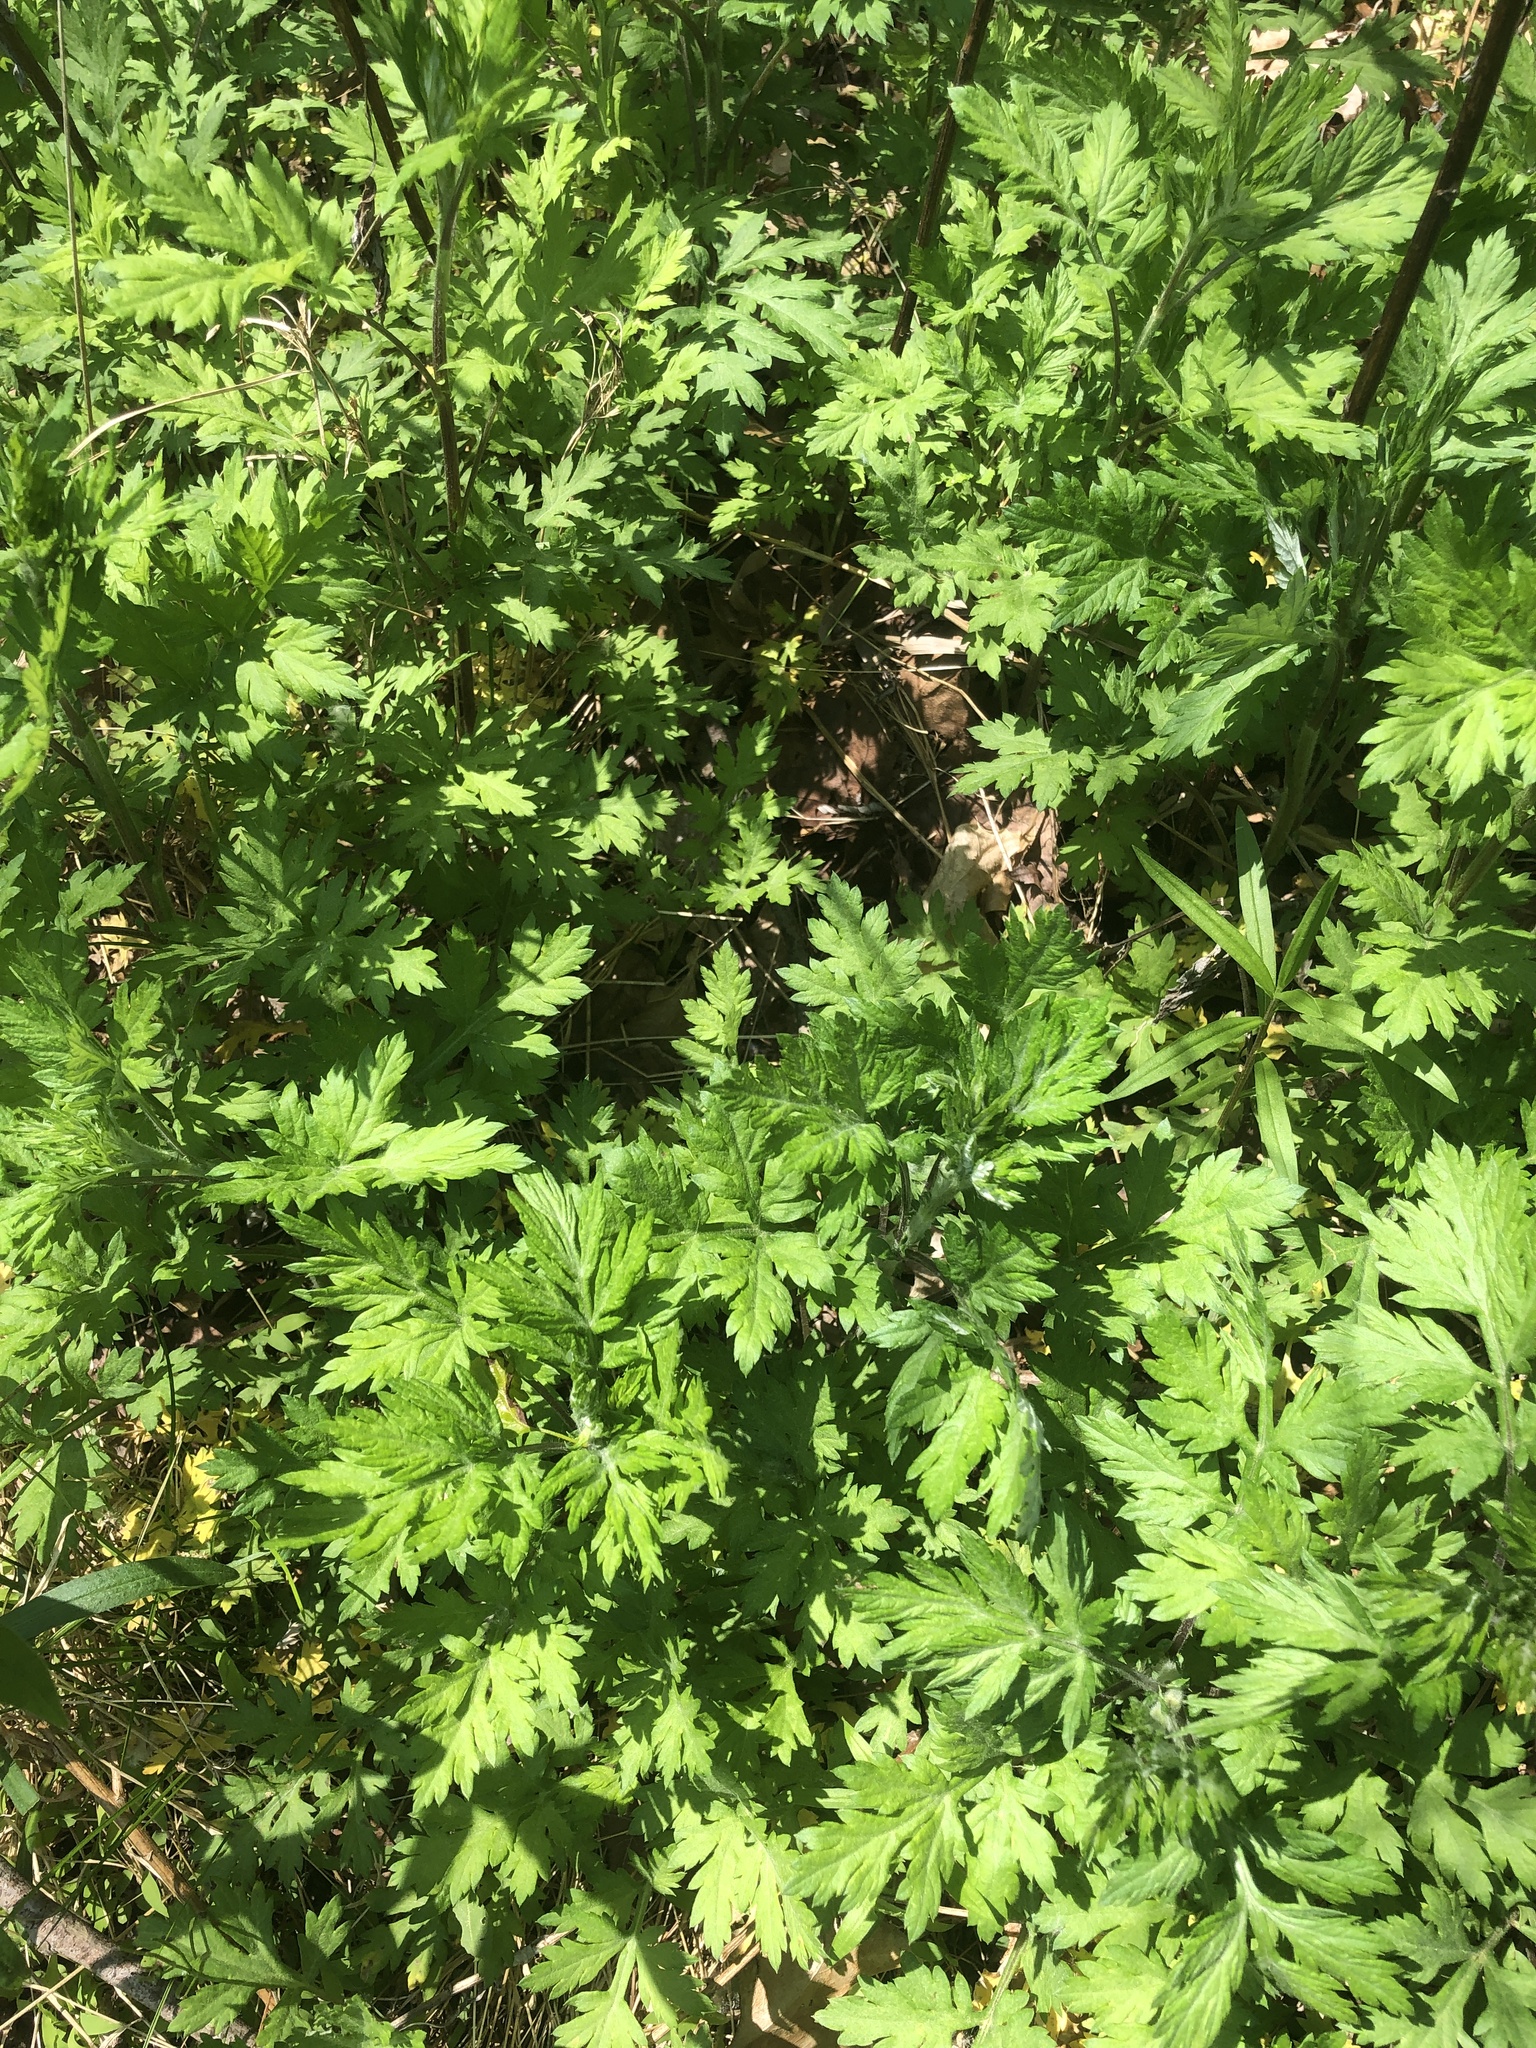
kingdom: Plantae
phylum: Tracheophyta
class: Magnoliopsida
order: Asterales
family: Asteraceae
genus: Artemisia
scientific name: Artemisia vulgaris
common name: Mugwort
